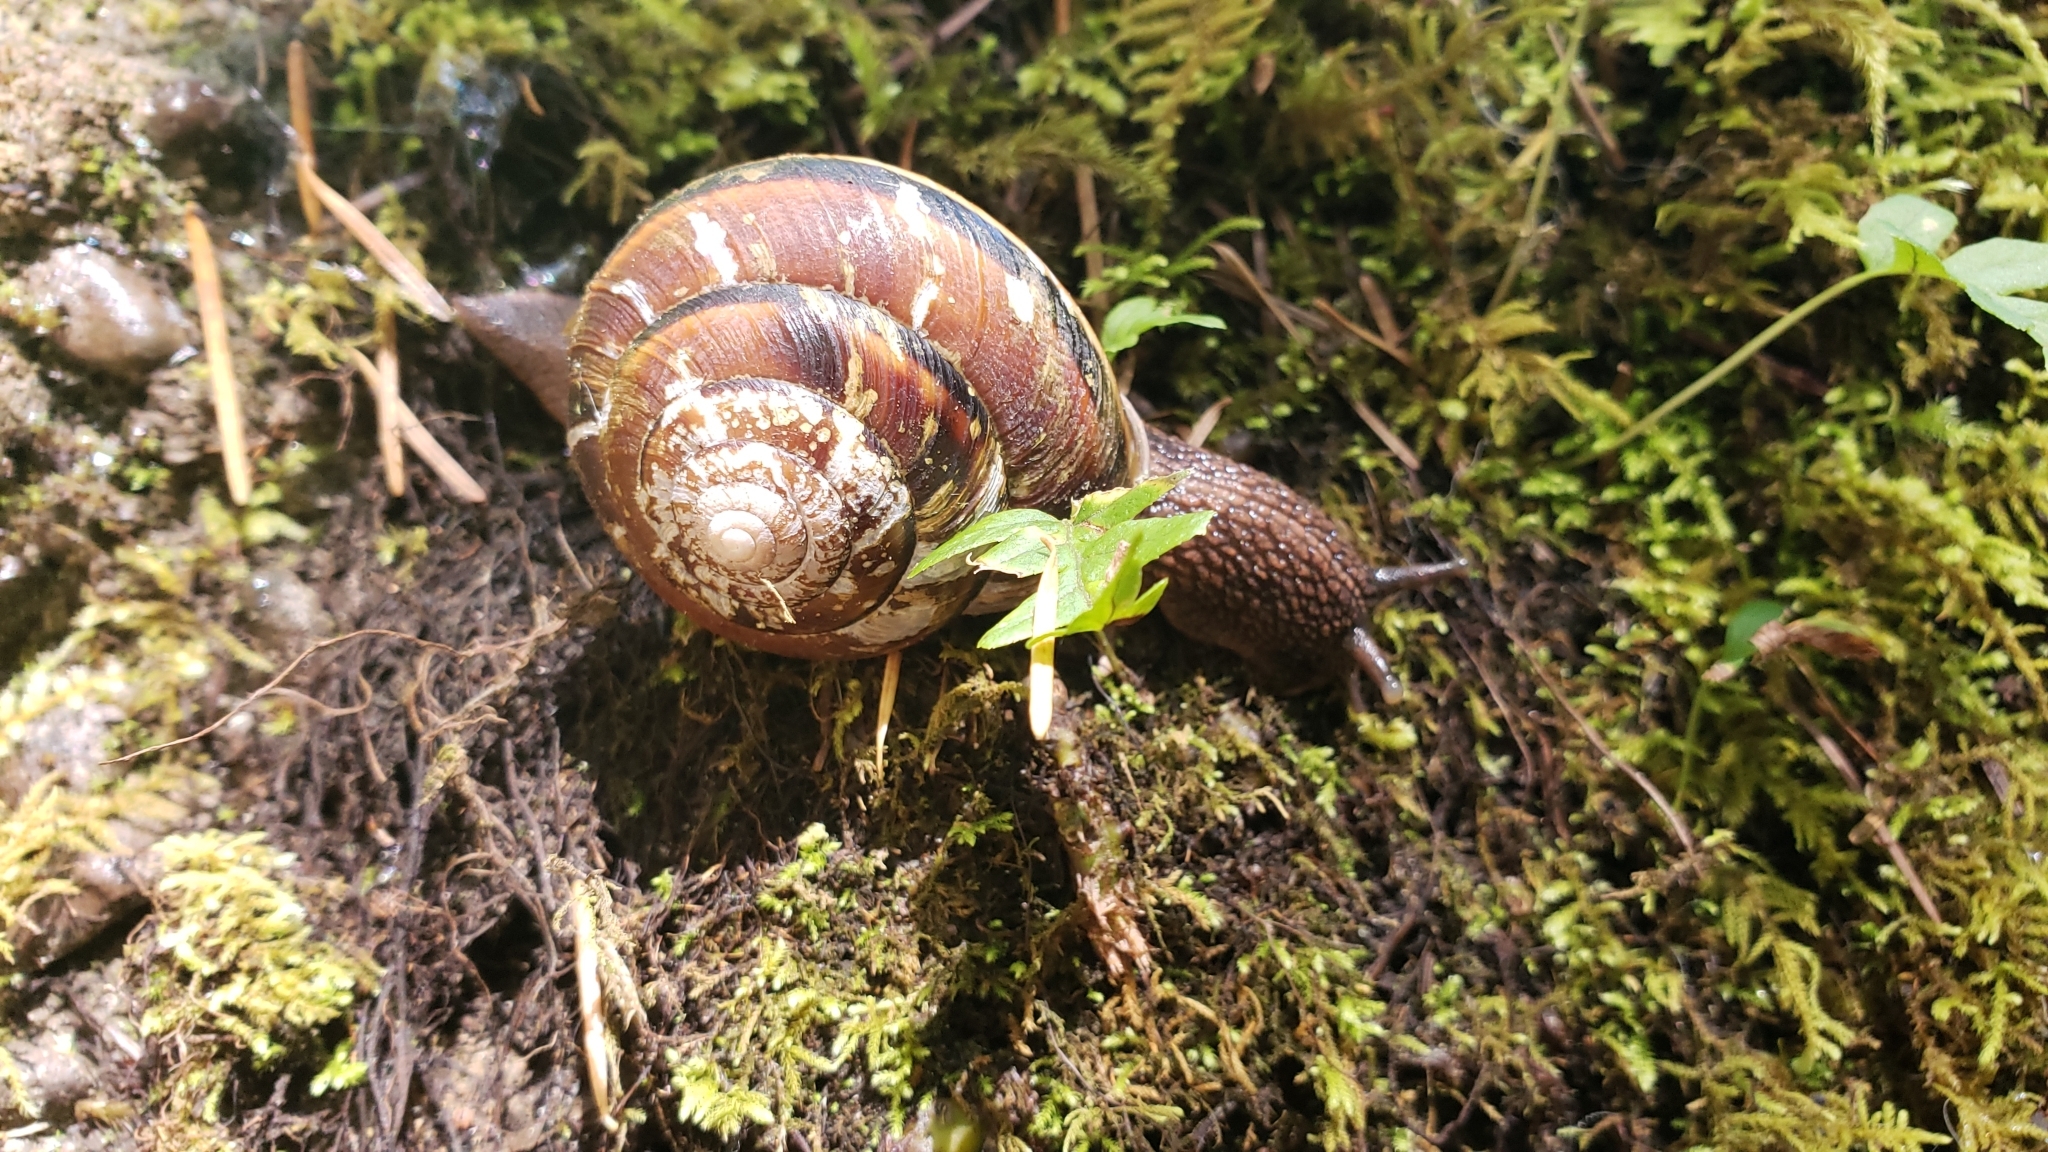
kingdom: Animalia
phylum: Mollusca
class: Gastropoda
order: Stylommatophora
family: Xanthonychidae
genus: Monadenia
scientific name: Monadenia fidelis
